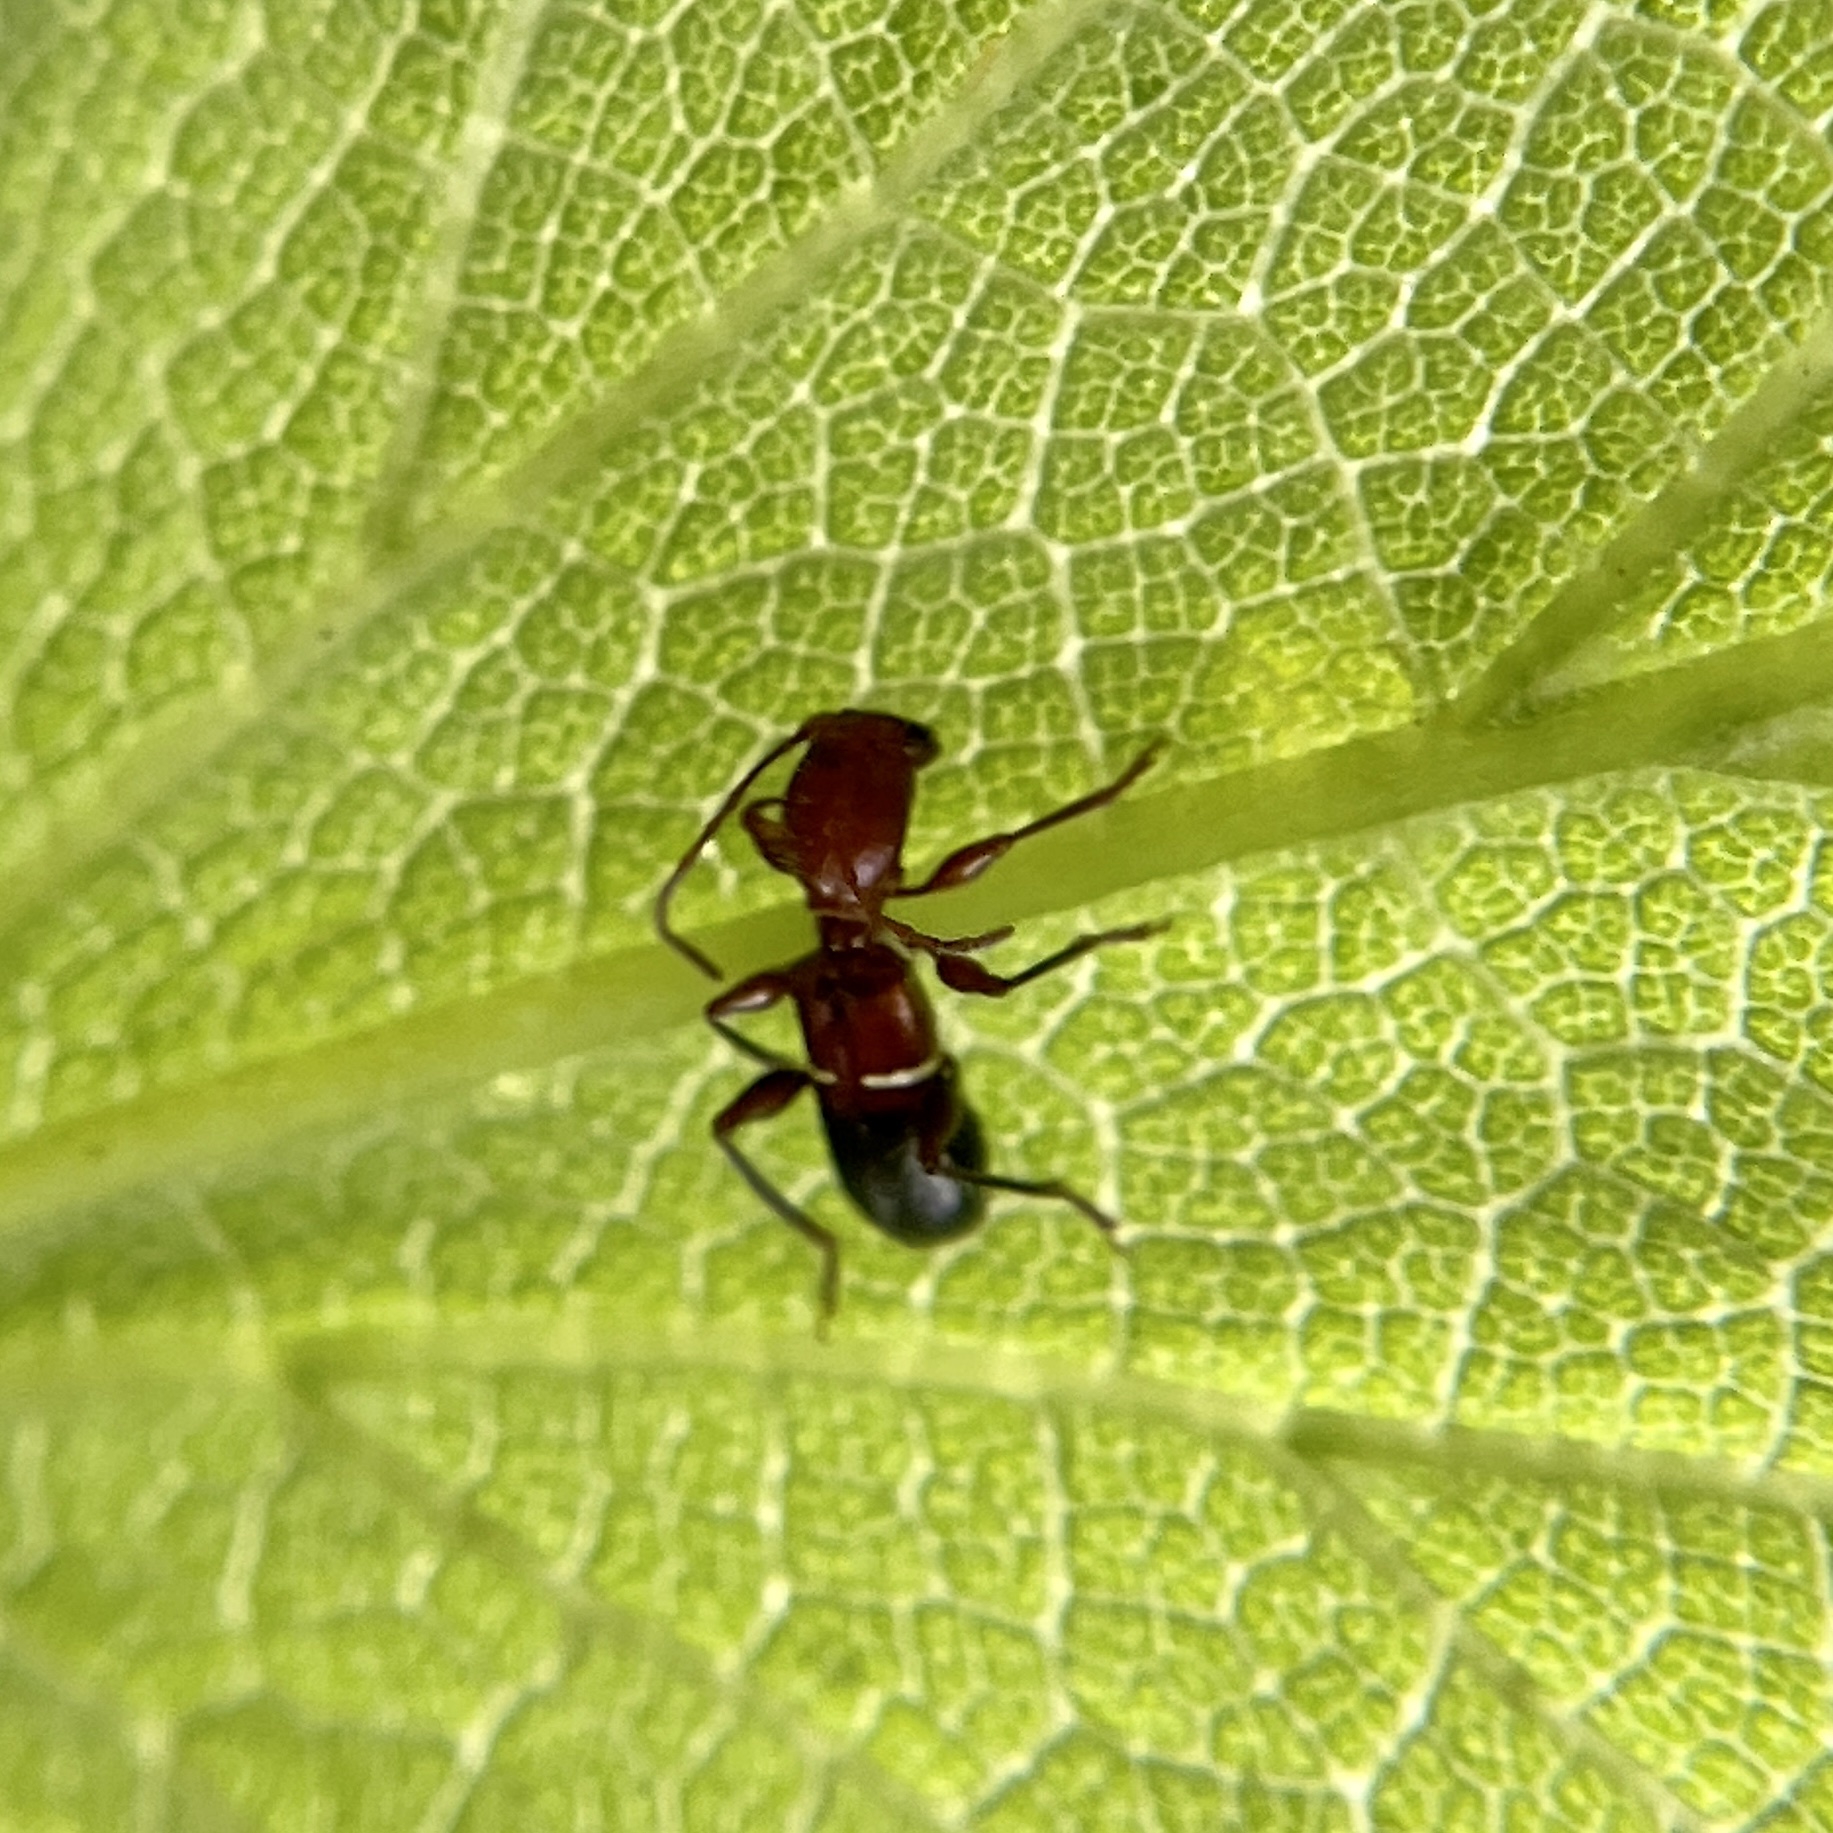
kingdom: Animalia
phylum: Arthropoda
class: Insecta
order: Coleoptera
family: Cerambycidae
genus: Euderces
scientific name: Euderces reichei
